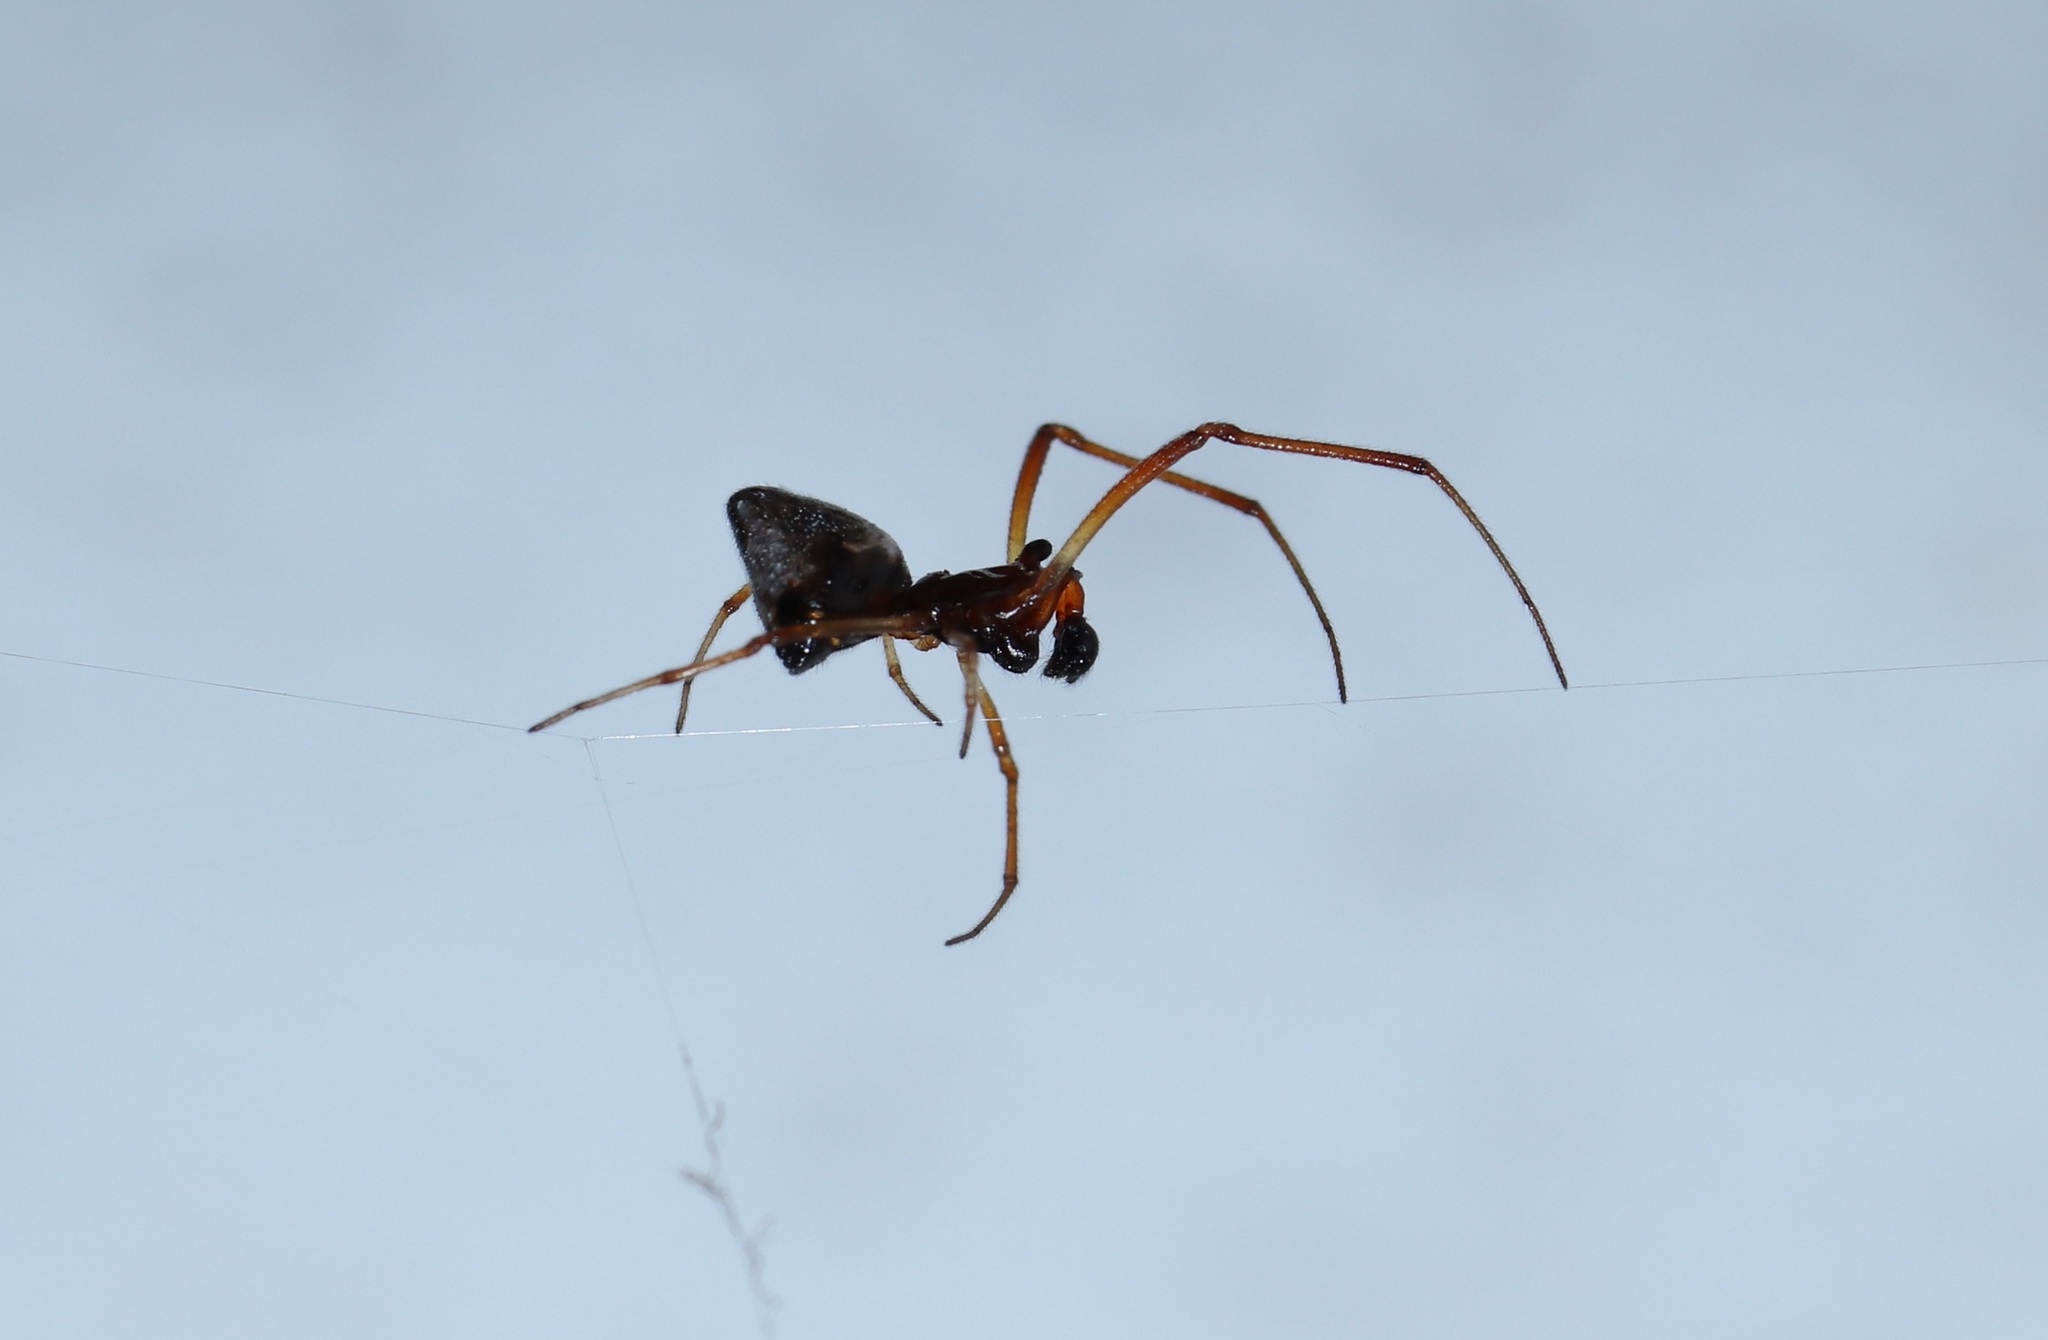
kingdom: Animalia
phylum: Arthropoda
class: Arachnida
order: Araneae
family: Theridiidae
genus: Argyrodes
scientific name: Argyrodes bonadea
